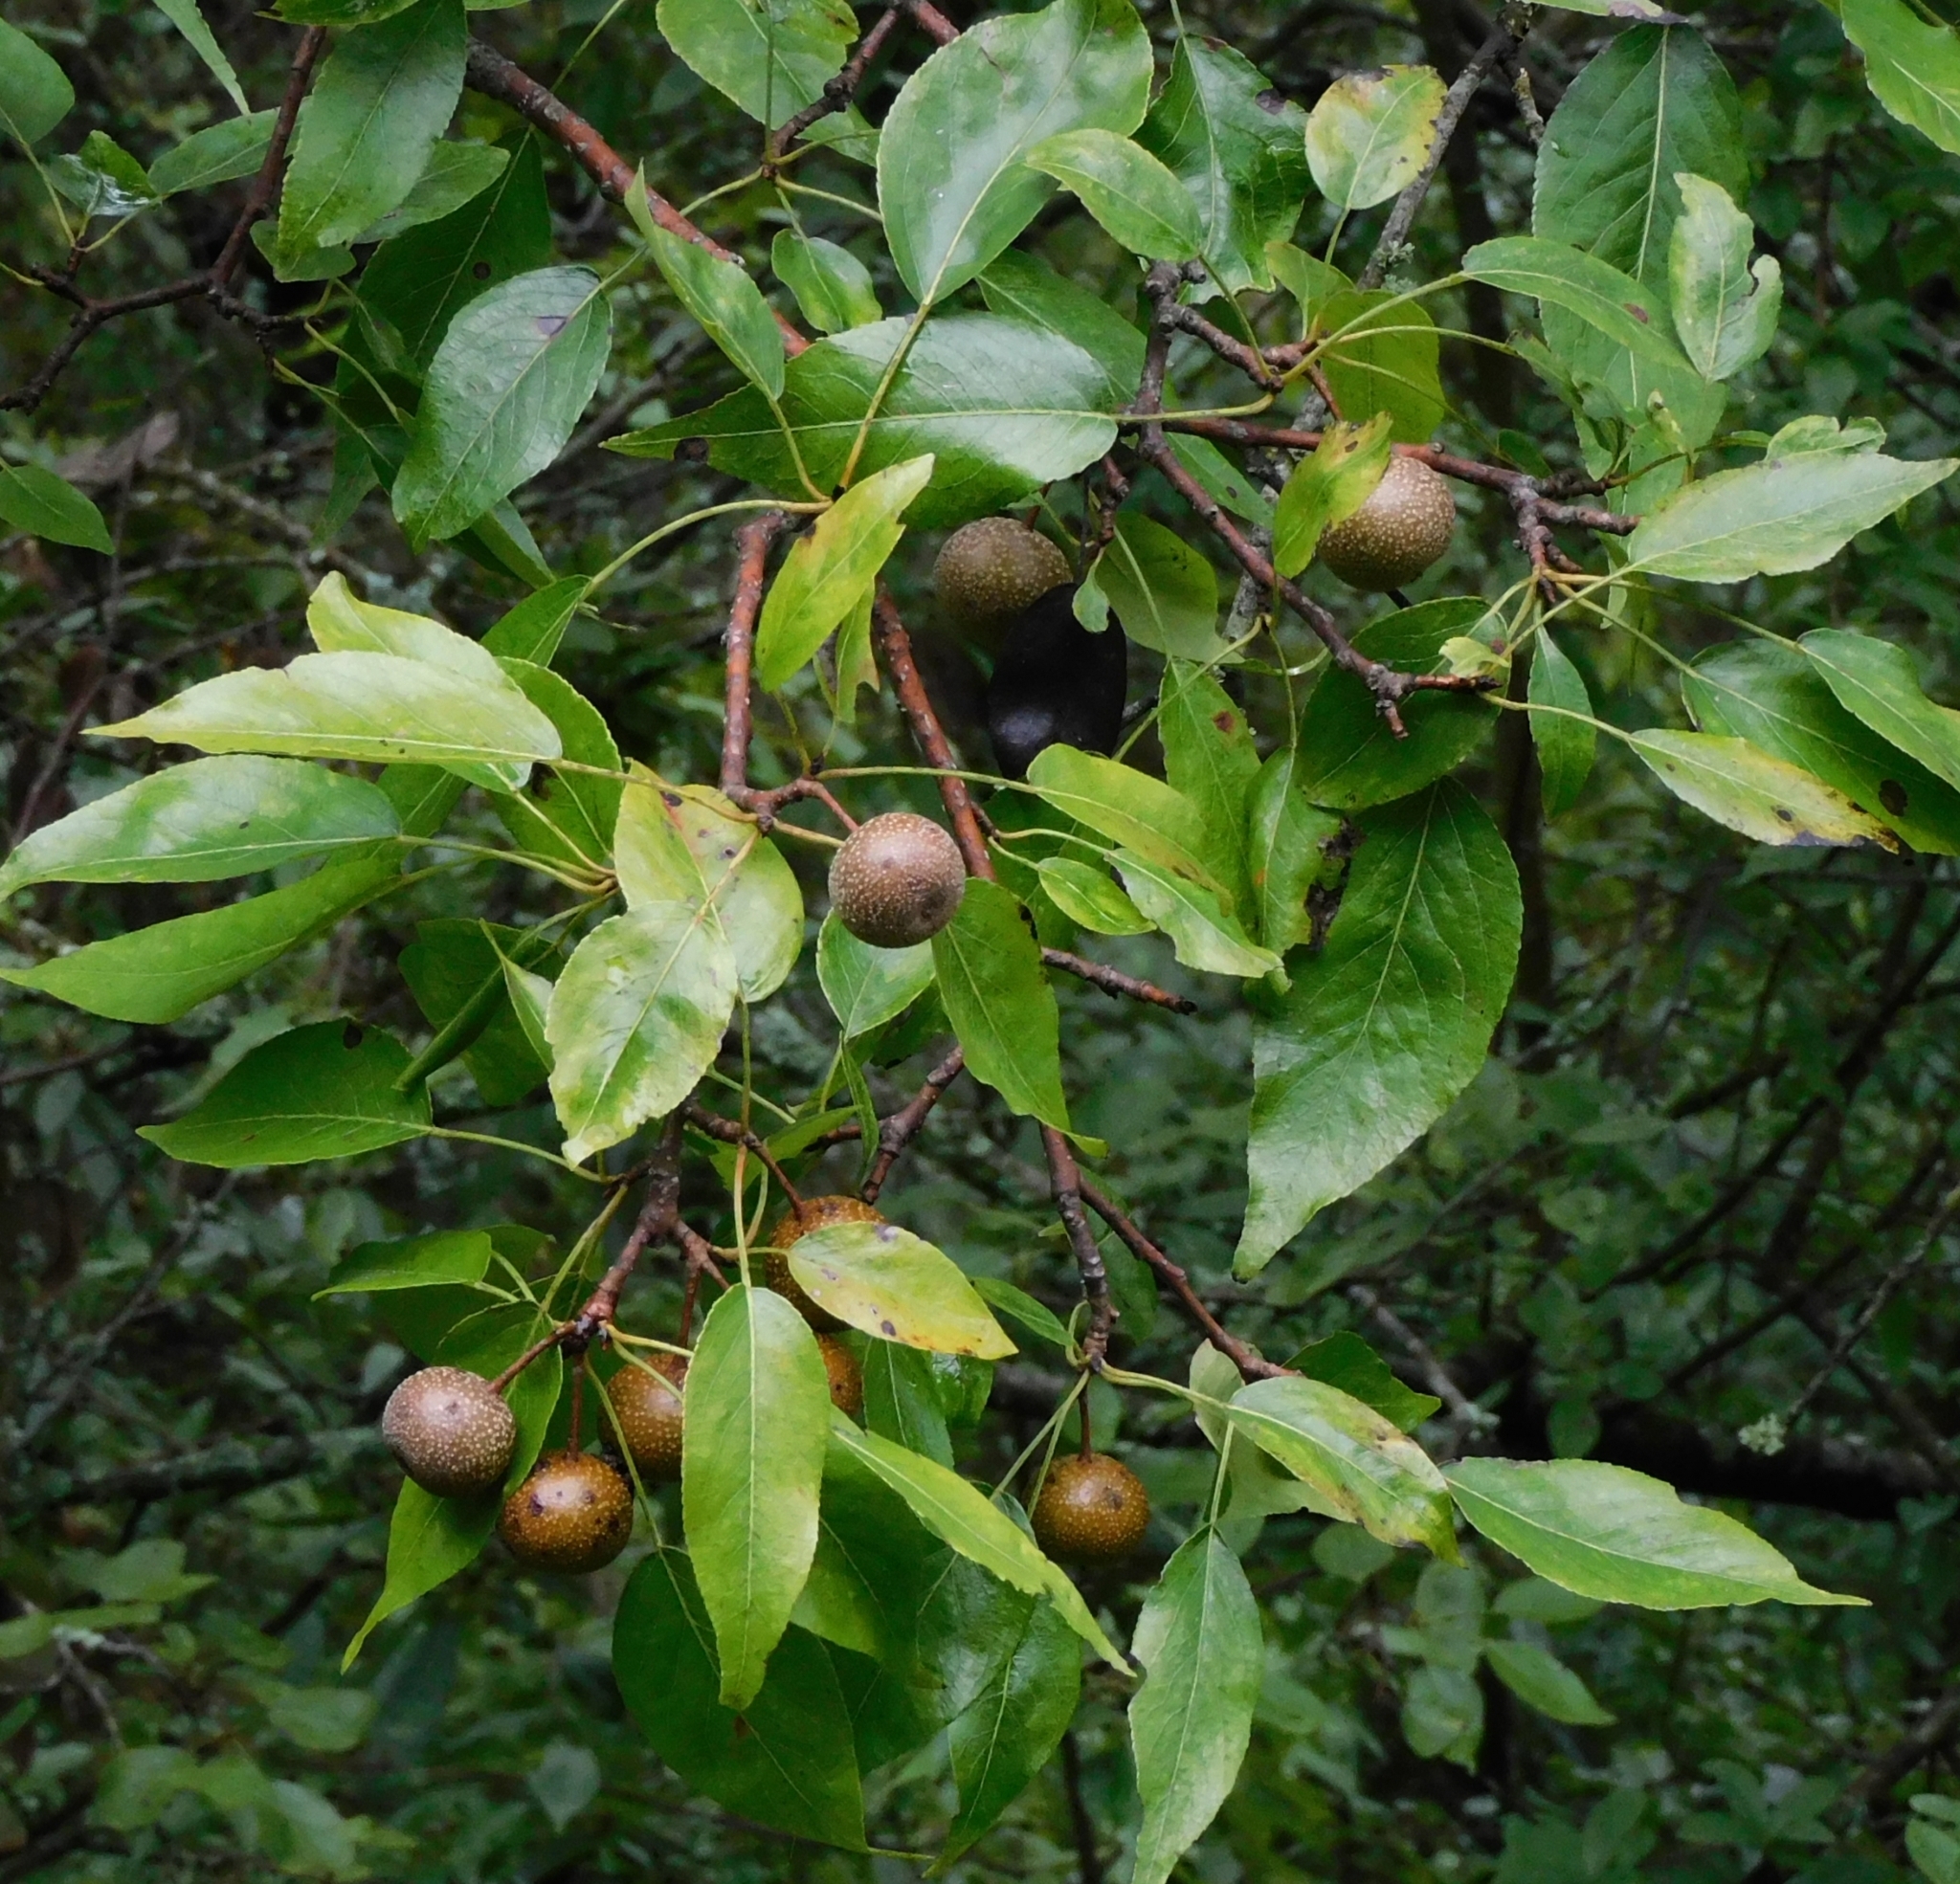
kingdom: Plantae
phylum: Tracheophyta
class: Magnoliopsida
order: Rosales
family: Rosaceae
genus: Pyrus
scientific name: Pyrus pashia
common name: Himalayan pear
